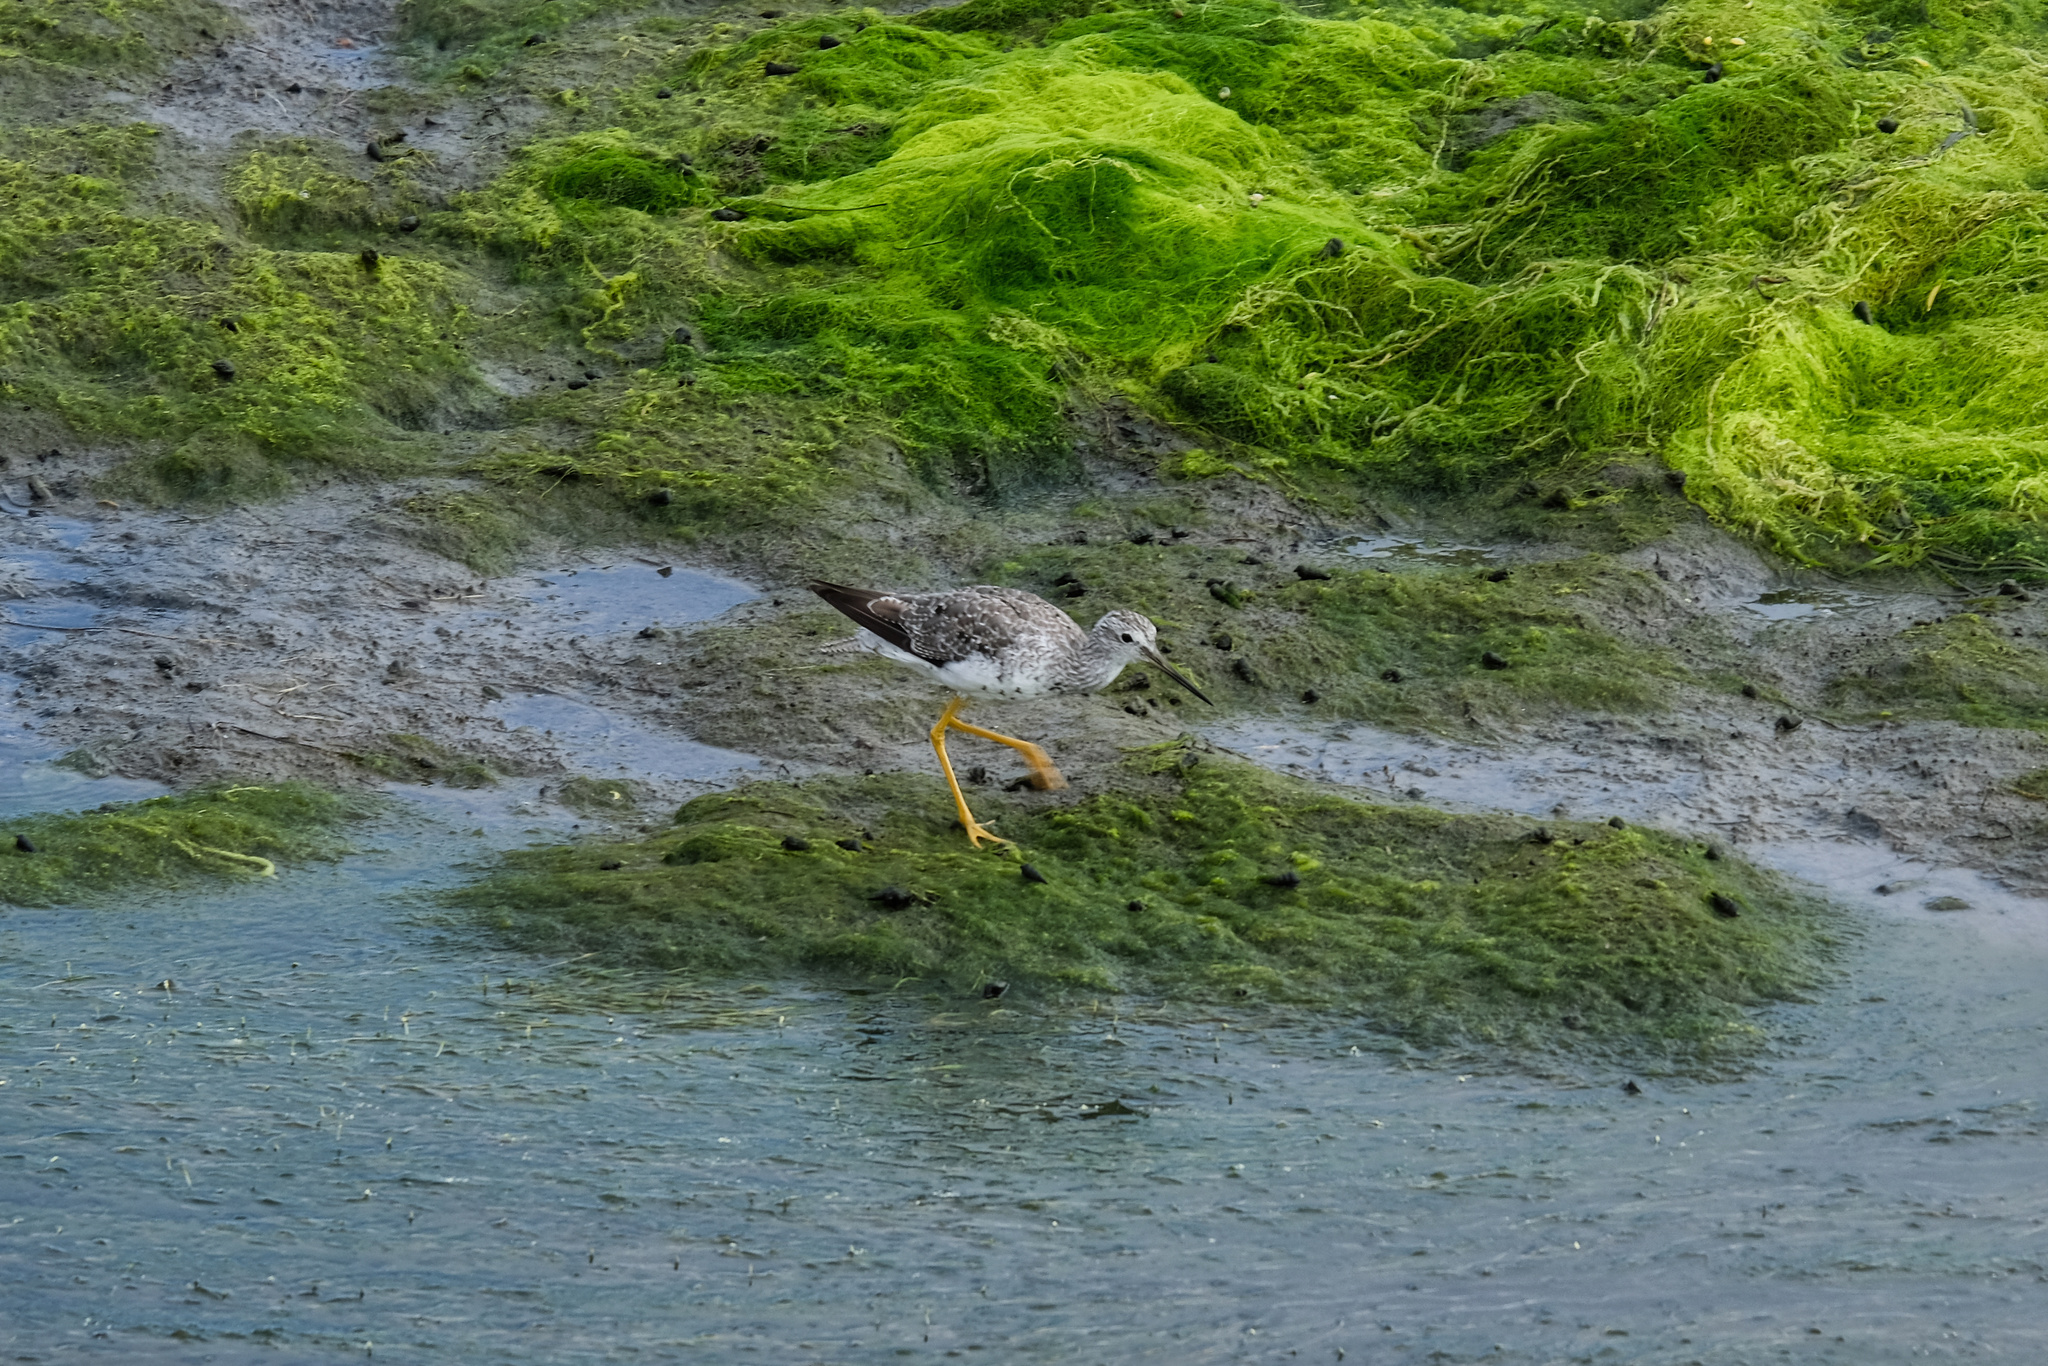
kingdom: Animalia
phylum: Chordata
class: Aves
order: Charadriiformes
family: Scolopacidae
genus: Tringa
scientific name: Tringa melanoleuca
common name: Greater yellowlegs
